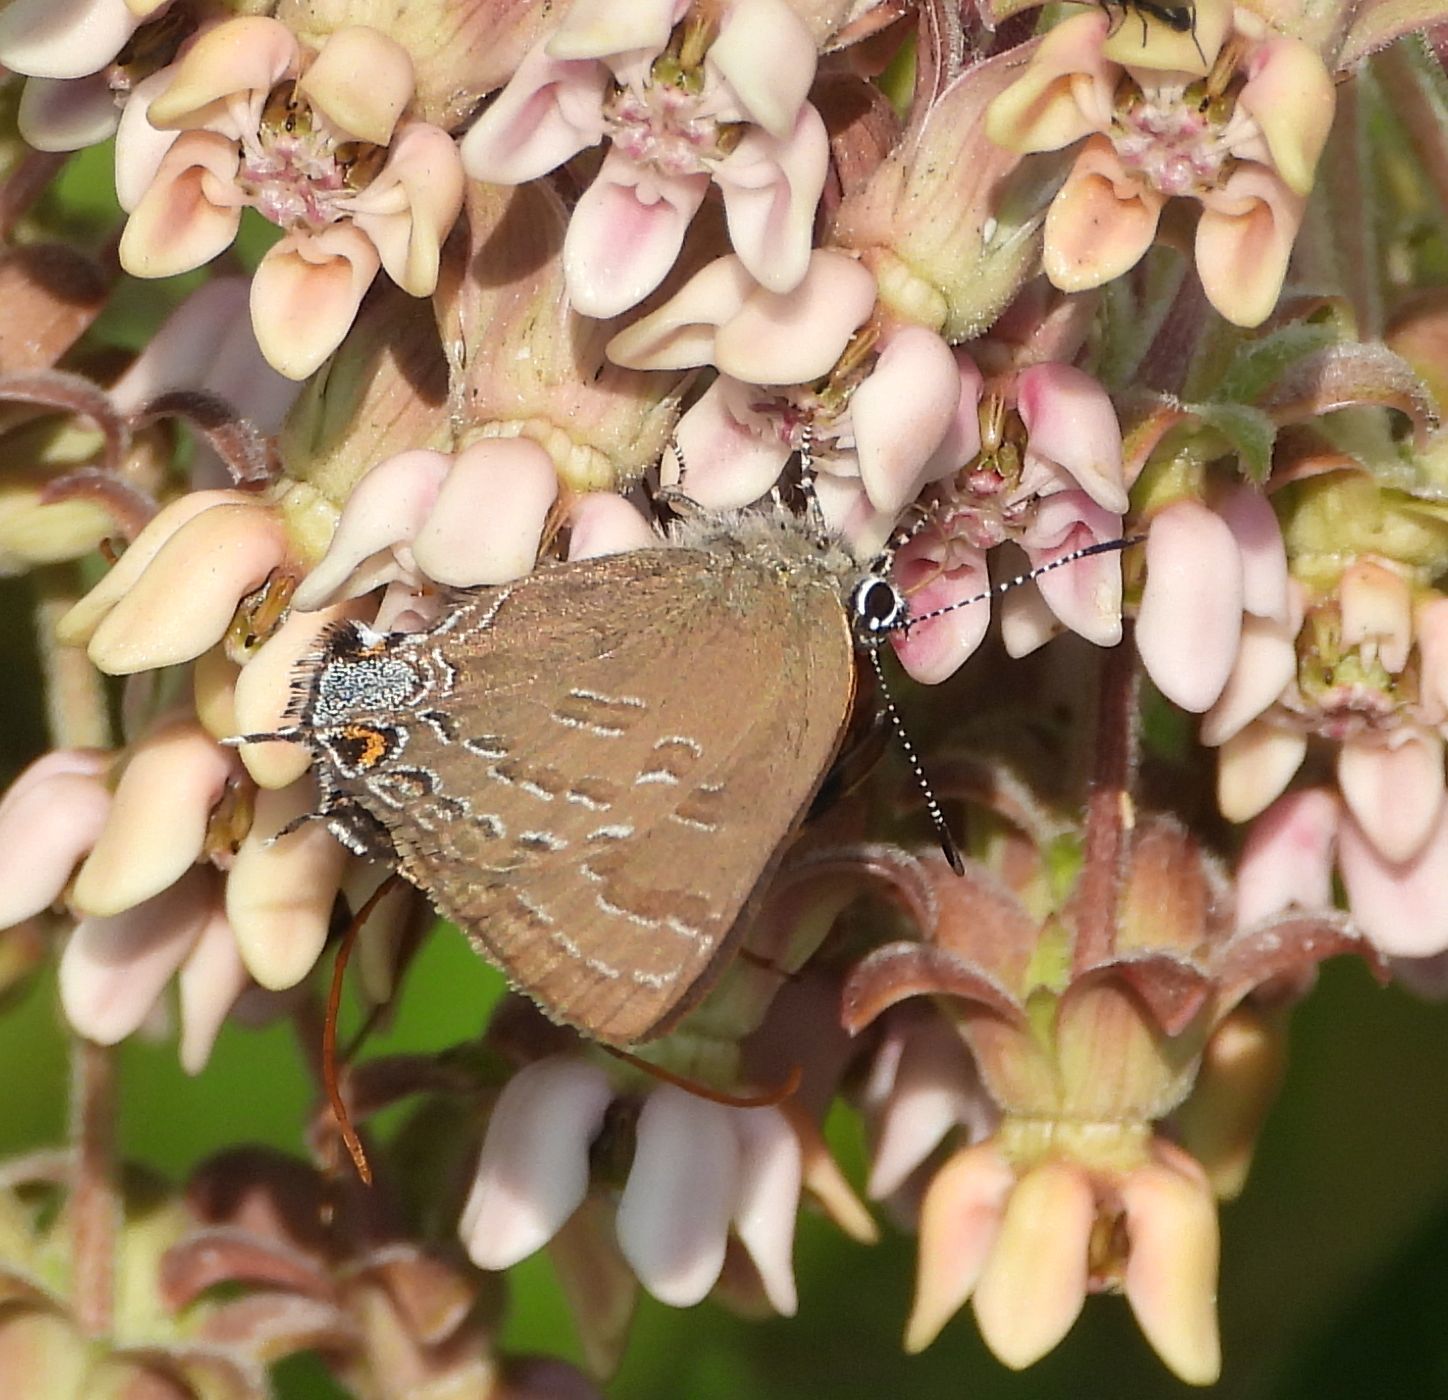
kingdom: Animalia
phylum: Arthropoda
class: Insecta
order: Lepidoptera
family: Lycaenidae
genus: Strymon
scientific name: Strymon caryaevorus
